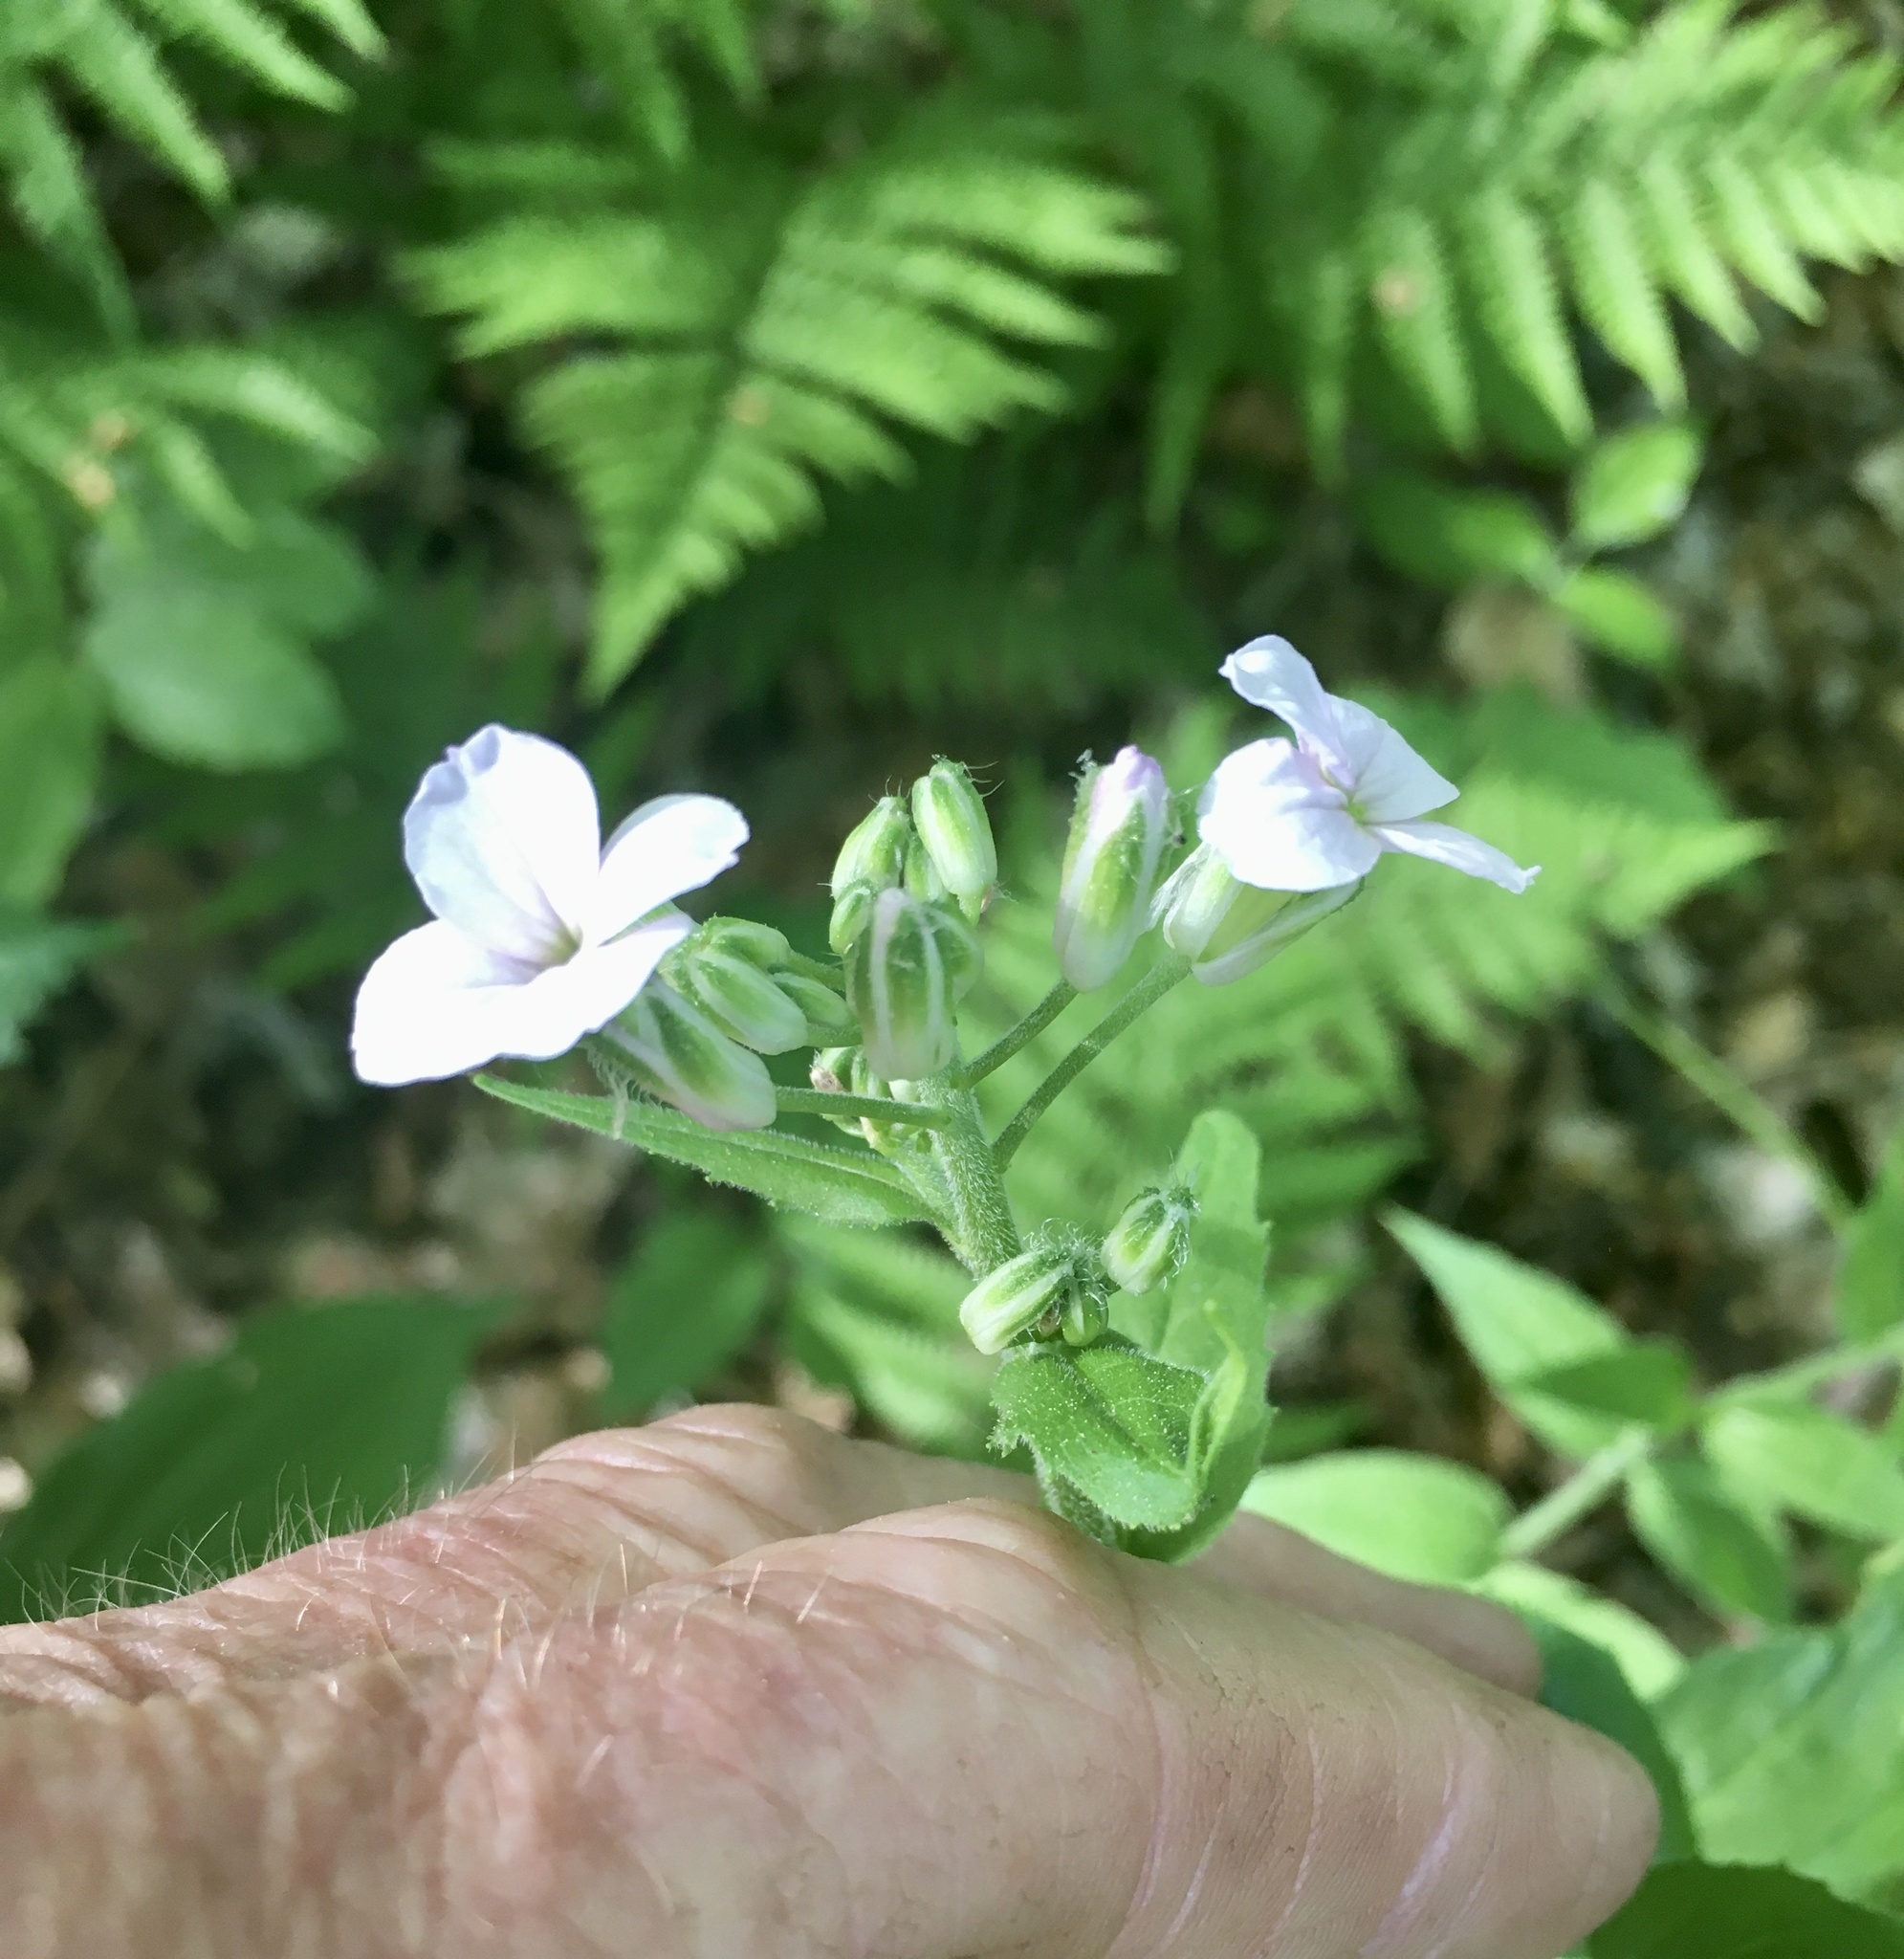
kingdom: Plantae
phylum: Tracheophyta
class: Magnoliopsida
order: Brassicales
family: Brassicaceae
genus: Hesperis
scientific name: Hesperis matronalis
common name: Dame's-violet
